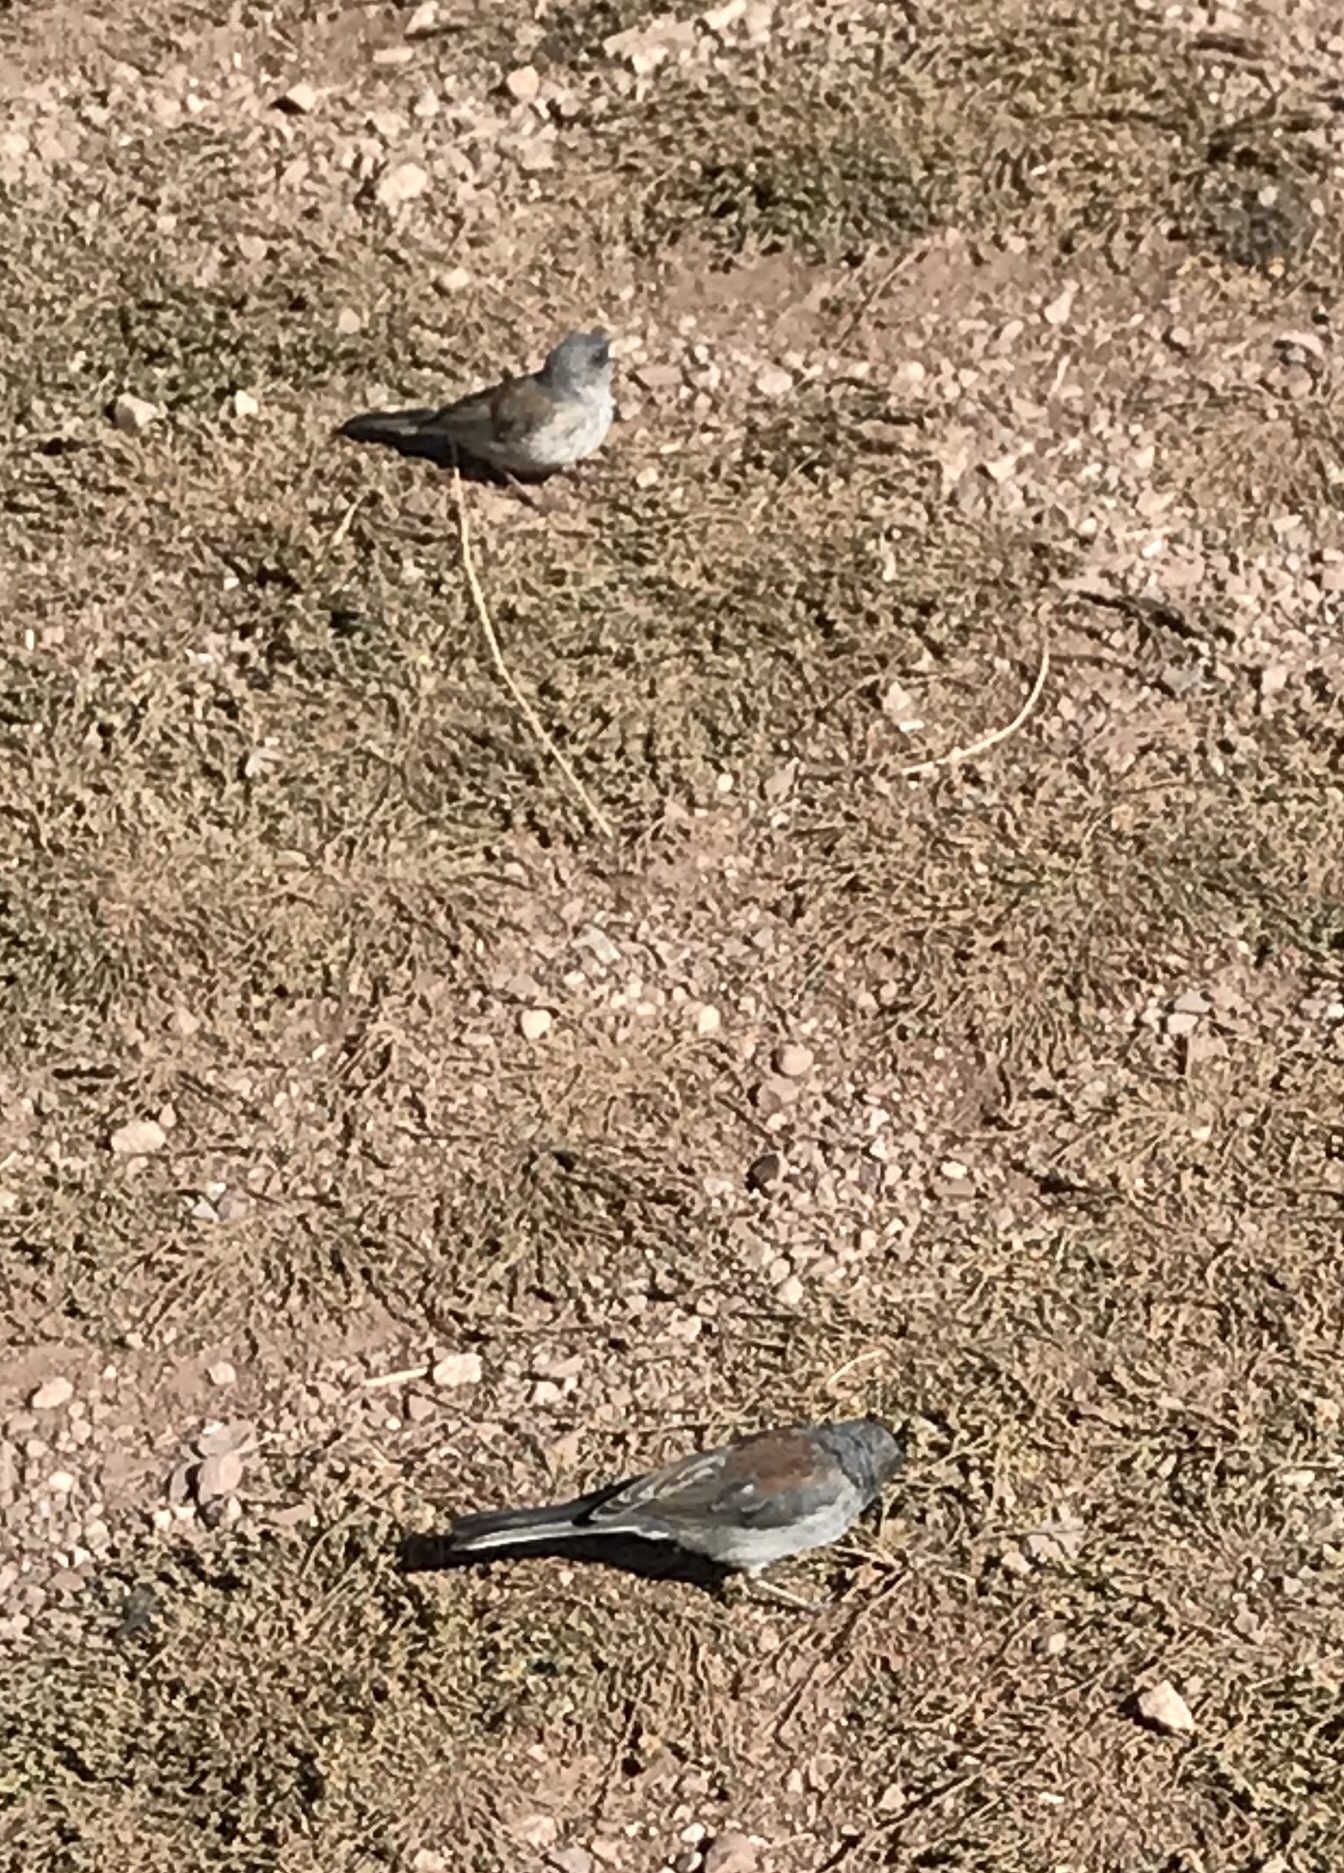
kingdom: Animalia
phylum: Chordata
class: Aves
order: Passeriformes
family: Passerellidae
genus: Junco
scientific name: Junco hyemalis
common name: Dark-eyed junco
